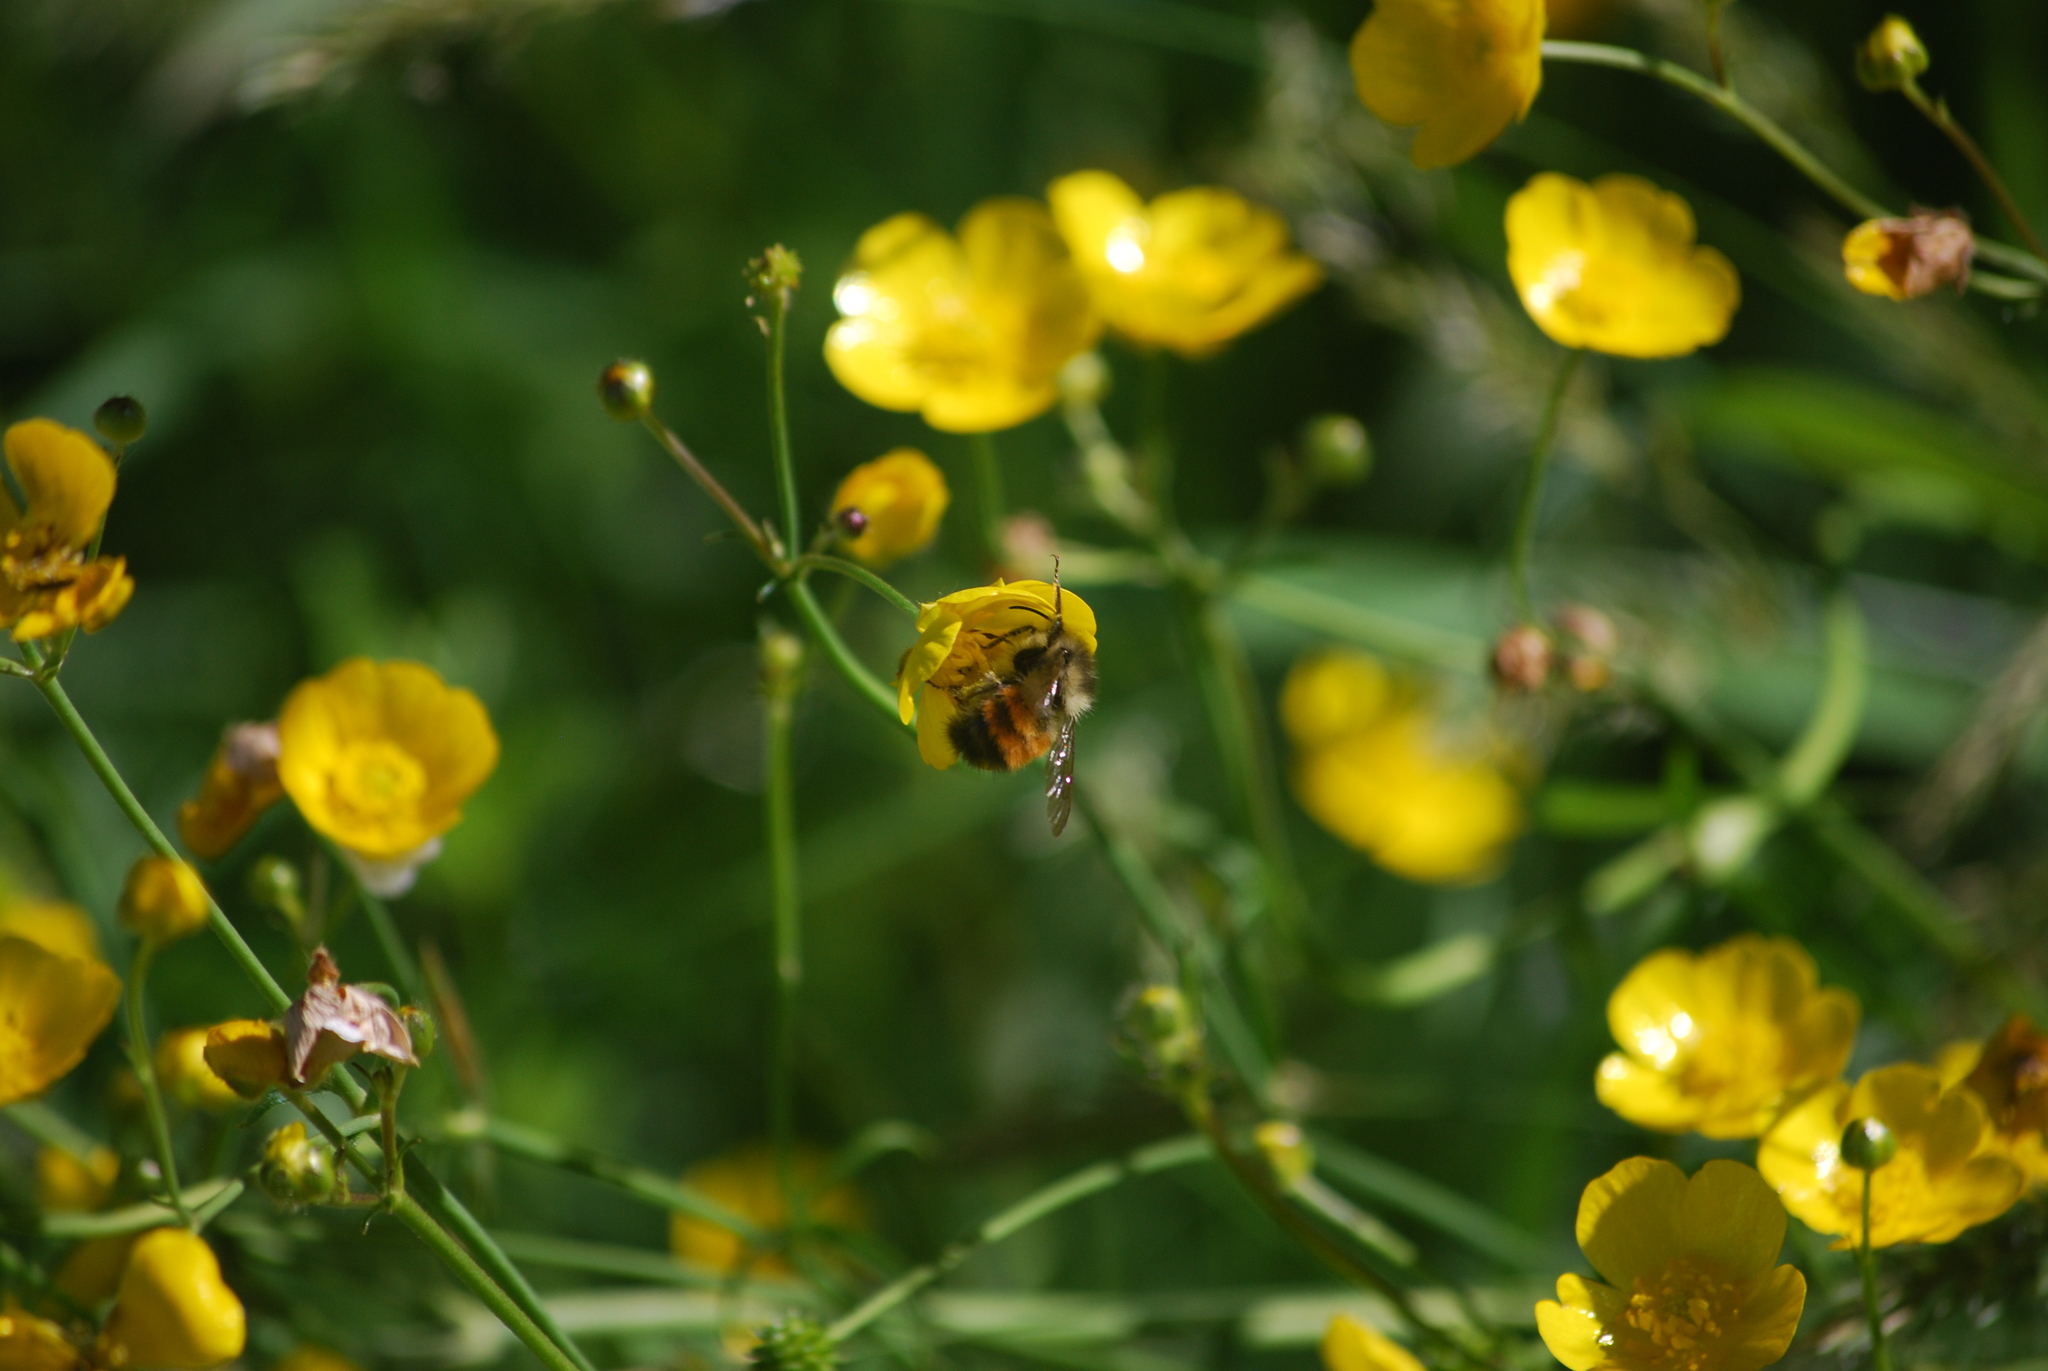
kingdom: Animalia
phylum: Arthropoda
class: Insecta
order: Hymenoptera
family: Apidae
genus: Bombus
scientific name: Bombus melanopygus
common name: Black tail bumble bee
